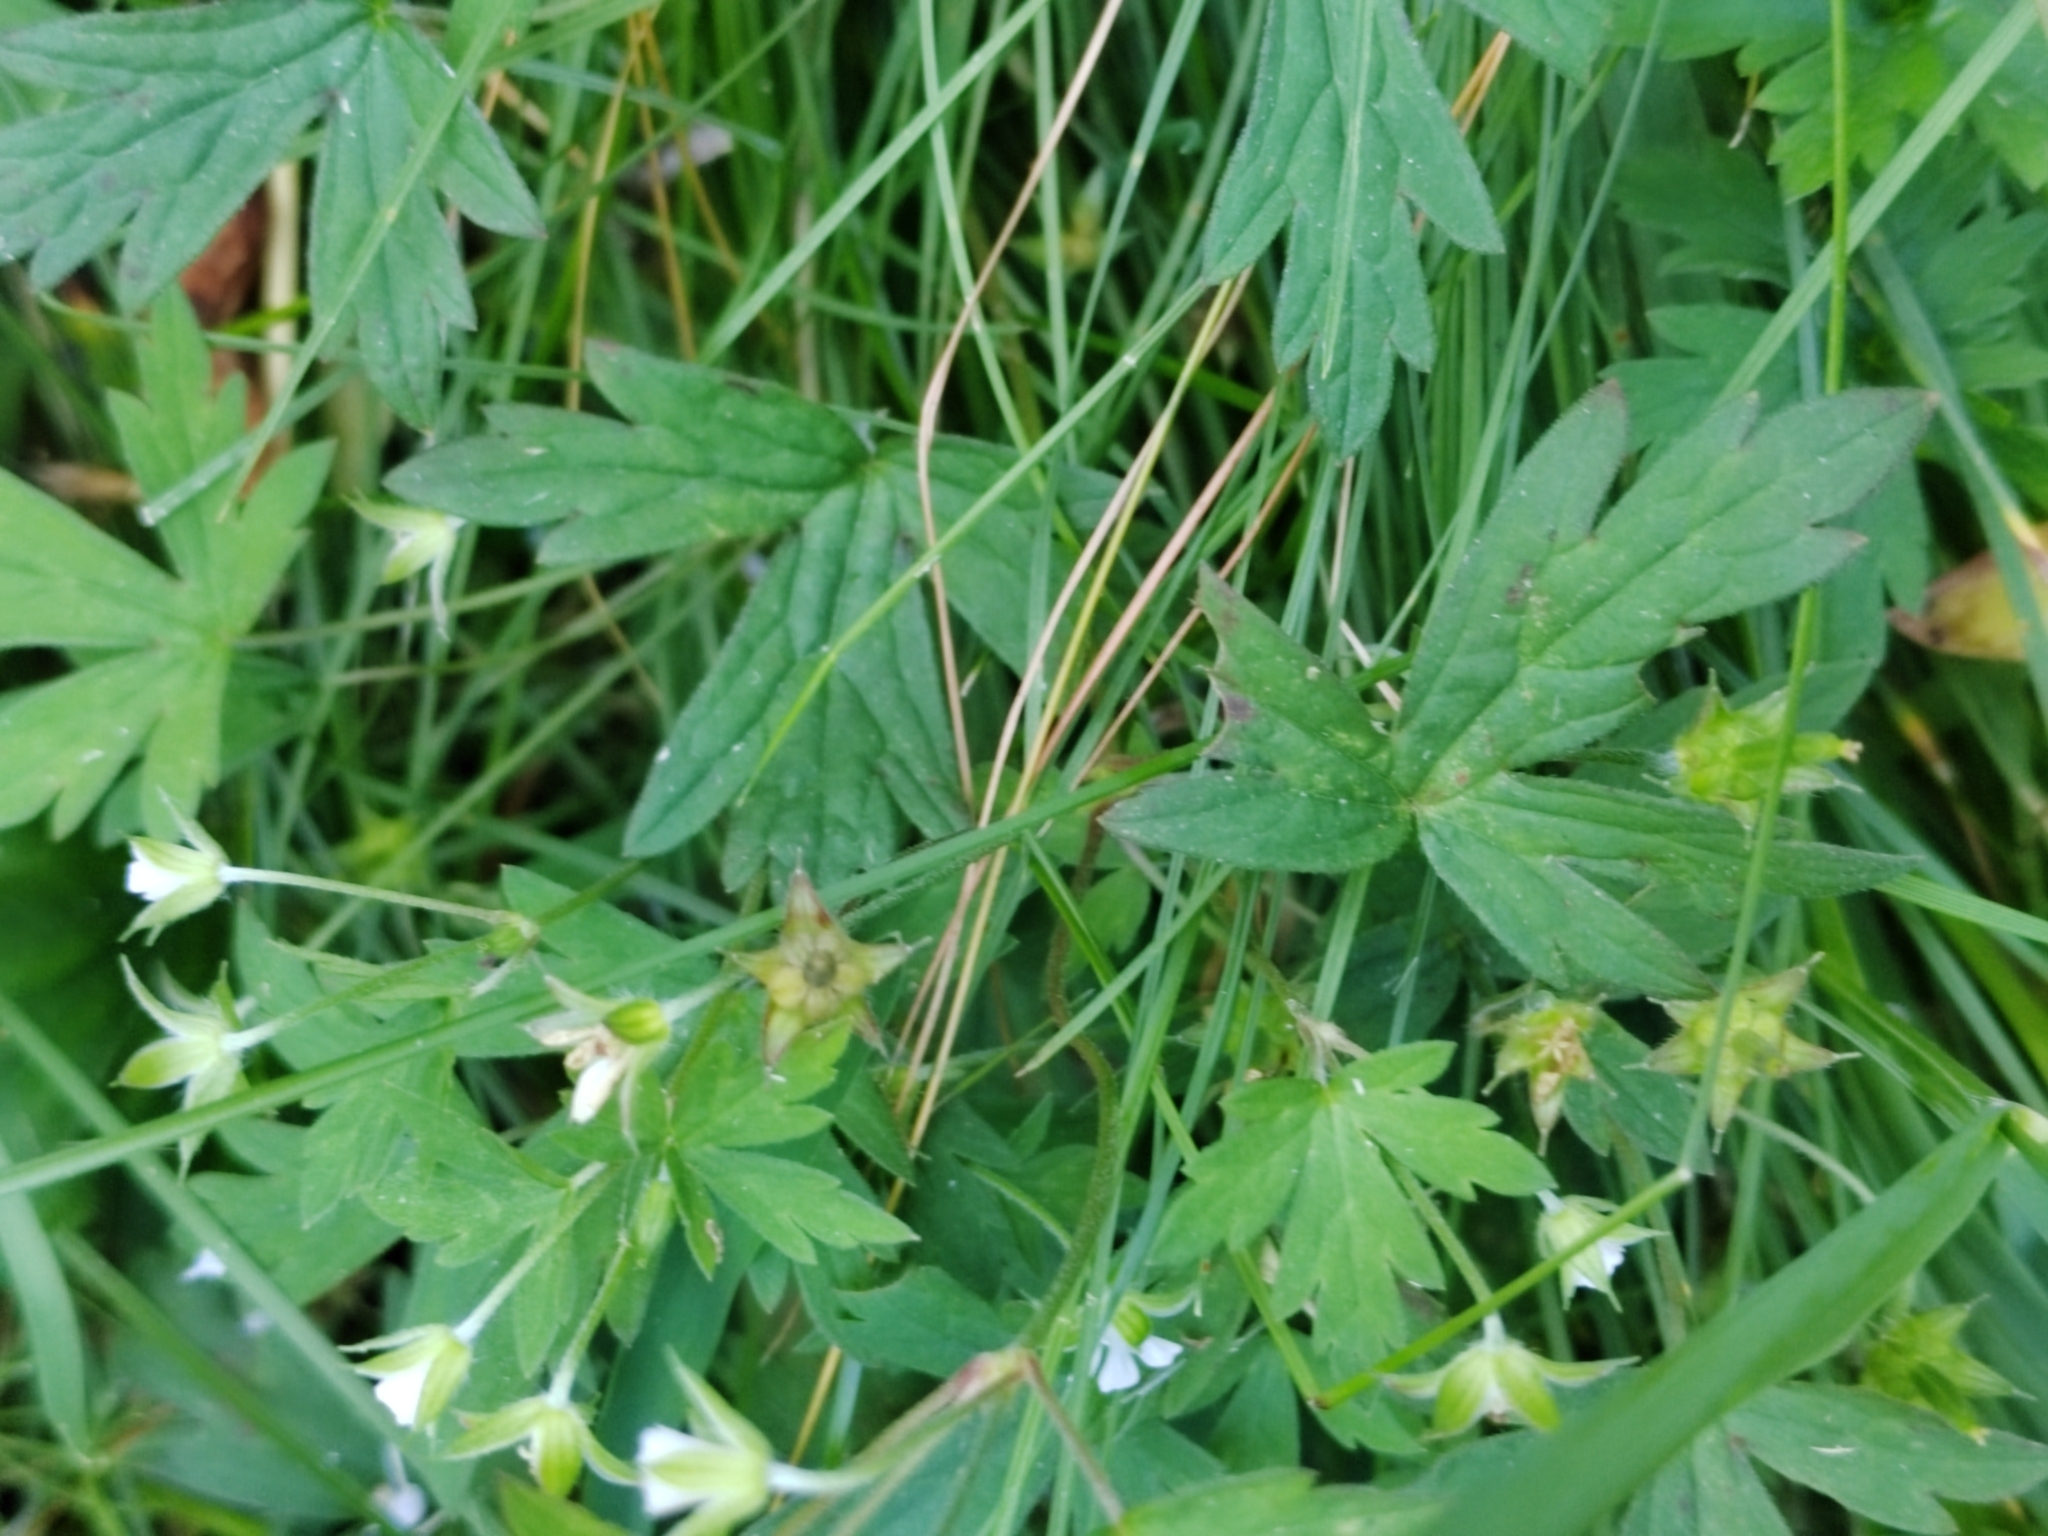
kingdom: Plantae
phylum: Tracheophyta
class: Magnoliopsida
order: Geraniales
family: Geraniaceae
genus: Geranium
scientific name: Geranium sibiricum
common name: Siberian crane's-bill
